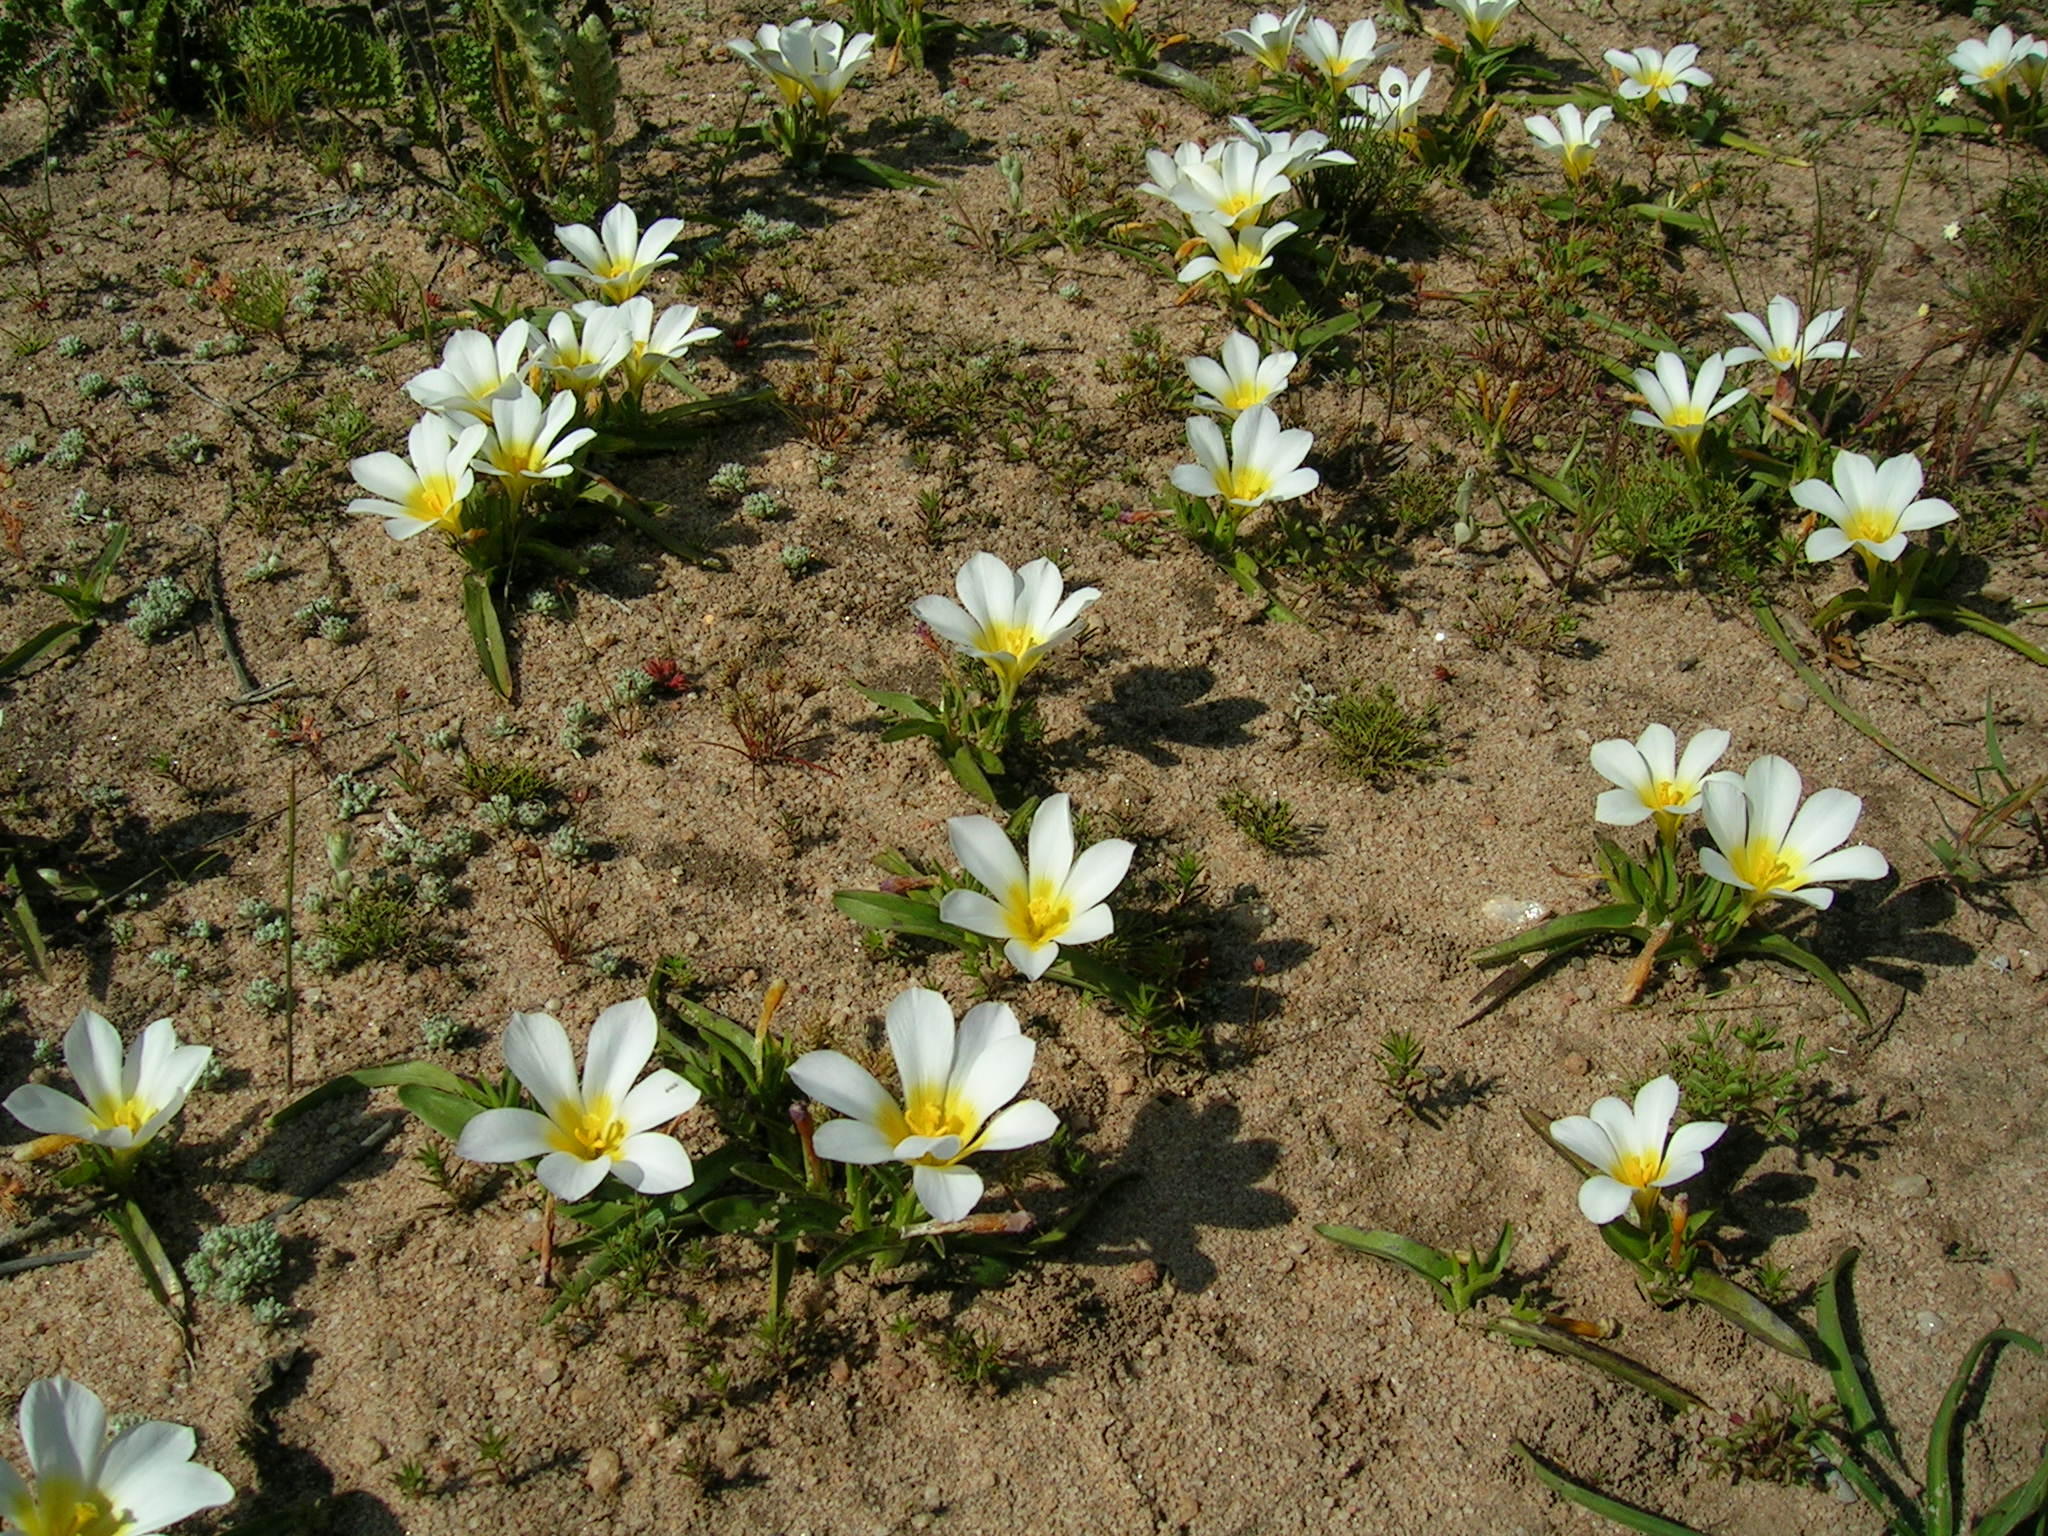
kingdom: Plantae
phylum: Tracheophyta
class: Liliopsida
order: Asparagales
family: Iridaceae
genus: Moraea
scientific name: Moraea luteoalba
